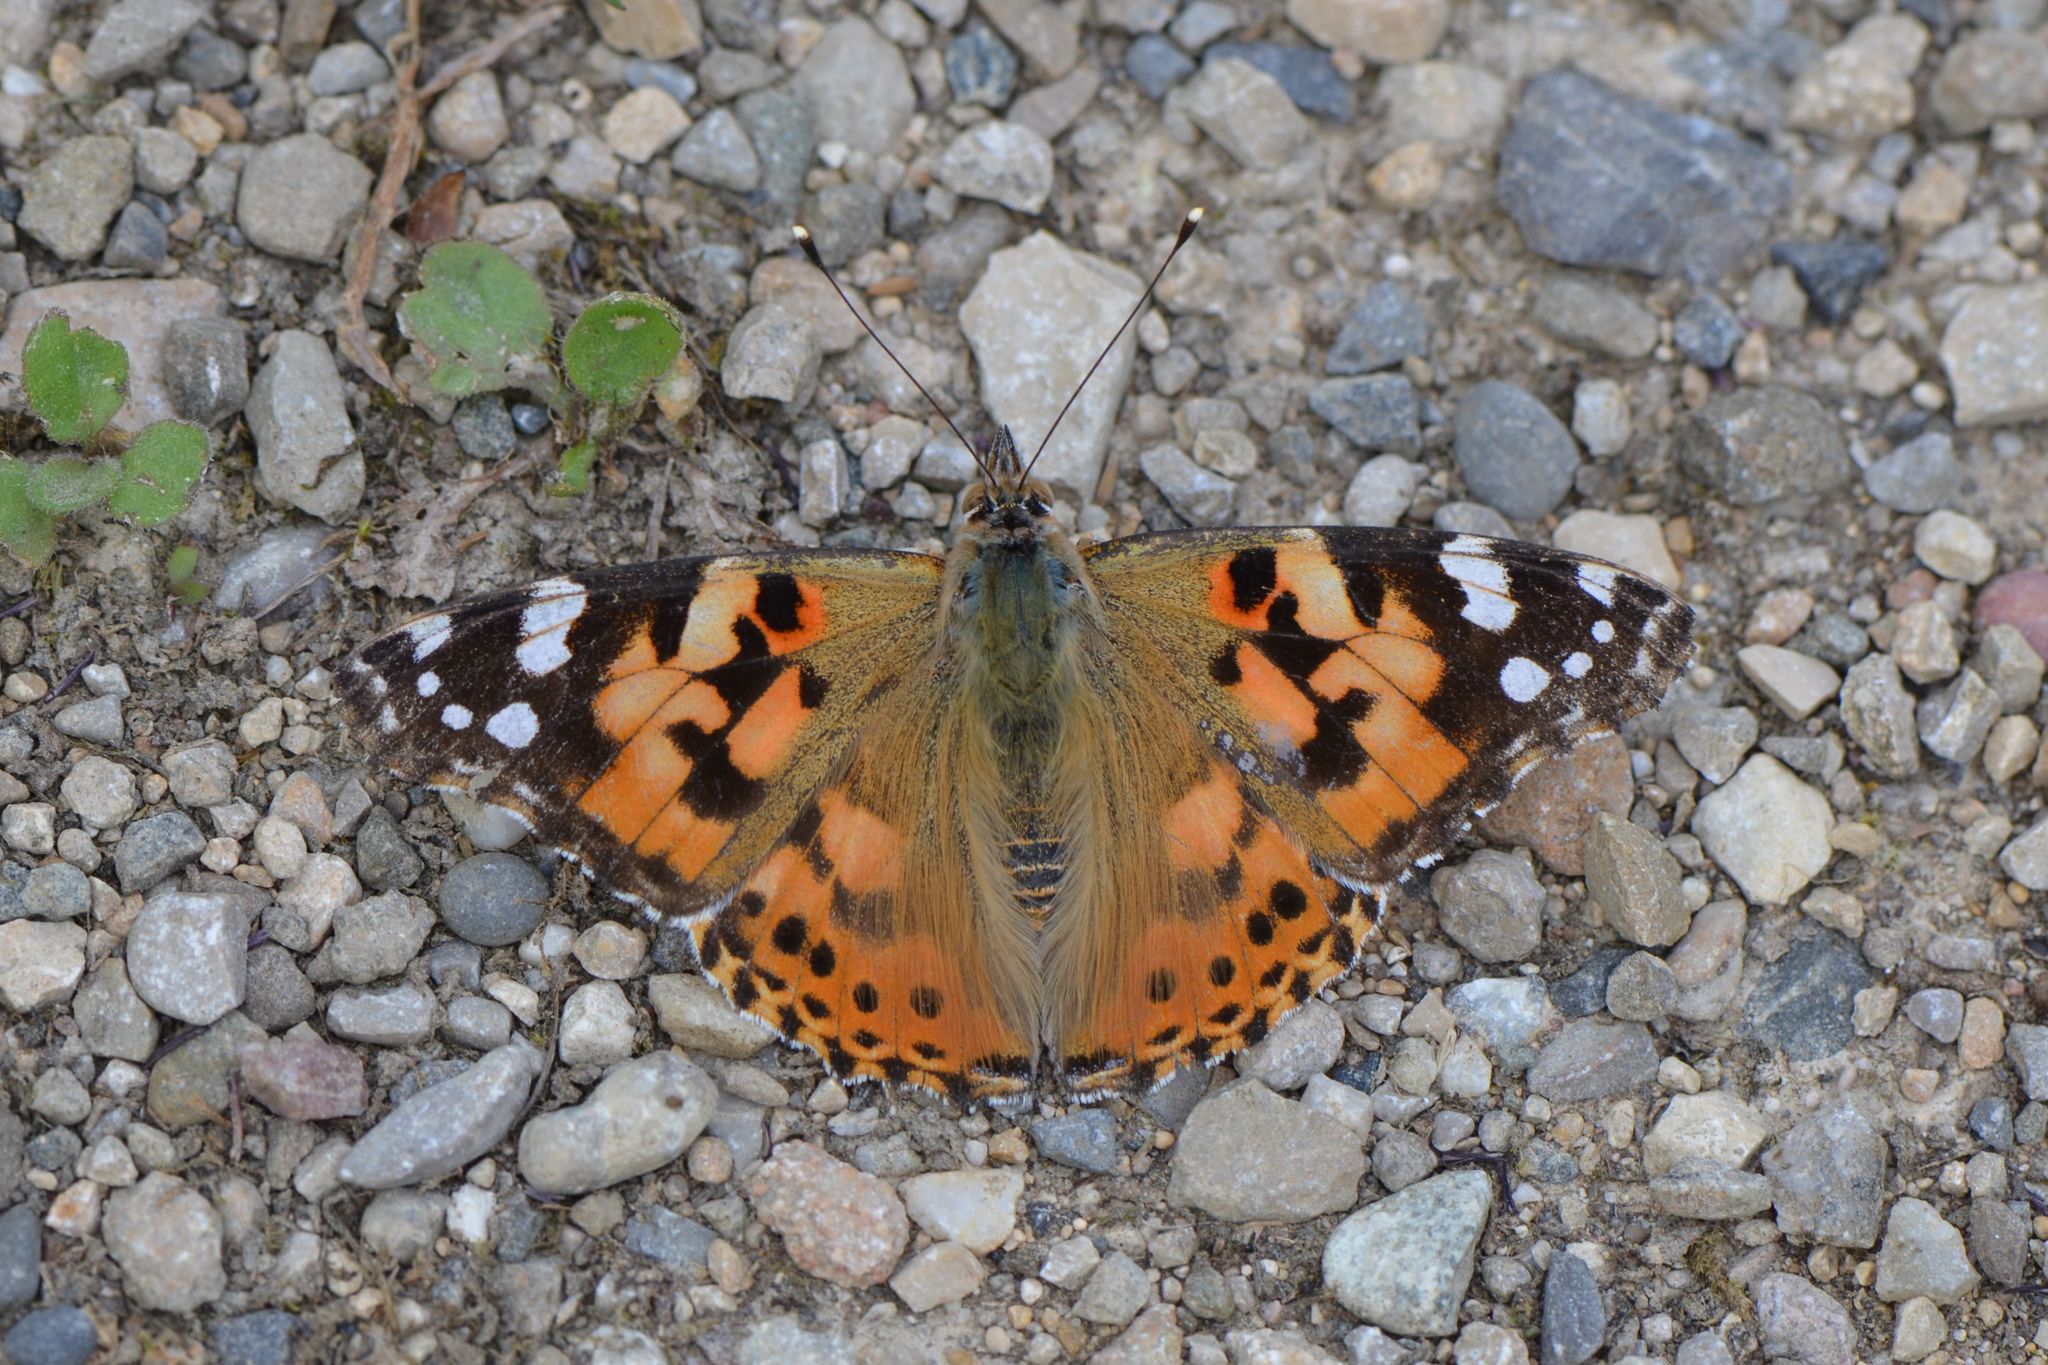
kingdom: Animalia
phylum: Arthropoda
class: Insecta
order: Lepidoptera
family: Nymphalidae
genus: Vanessa
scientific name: Vanessa cardui
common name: Painted lady
